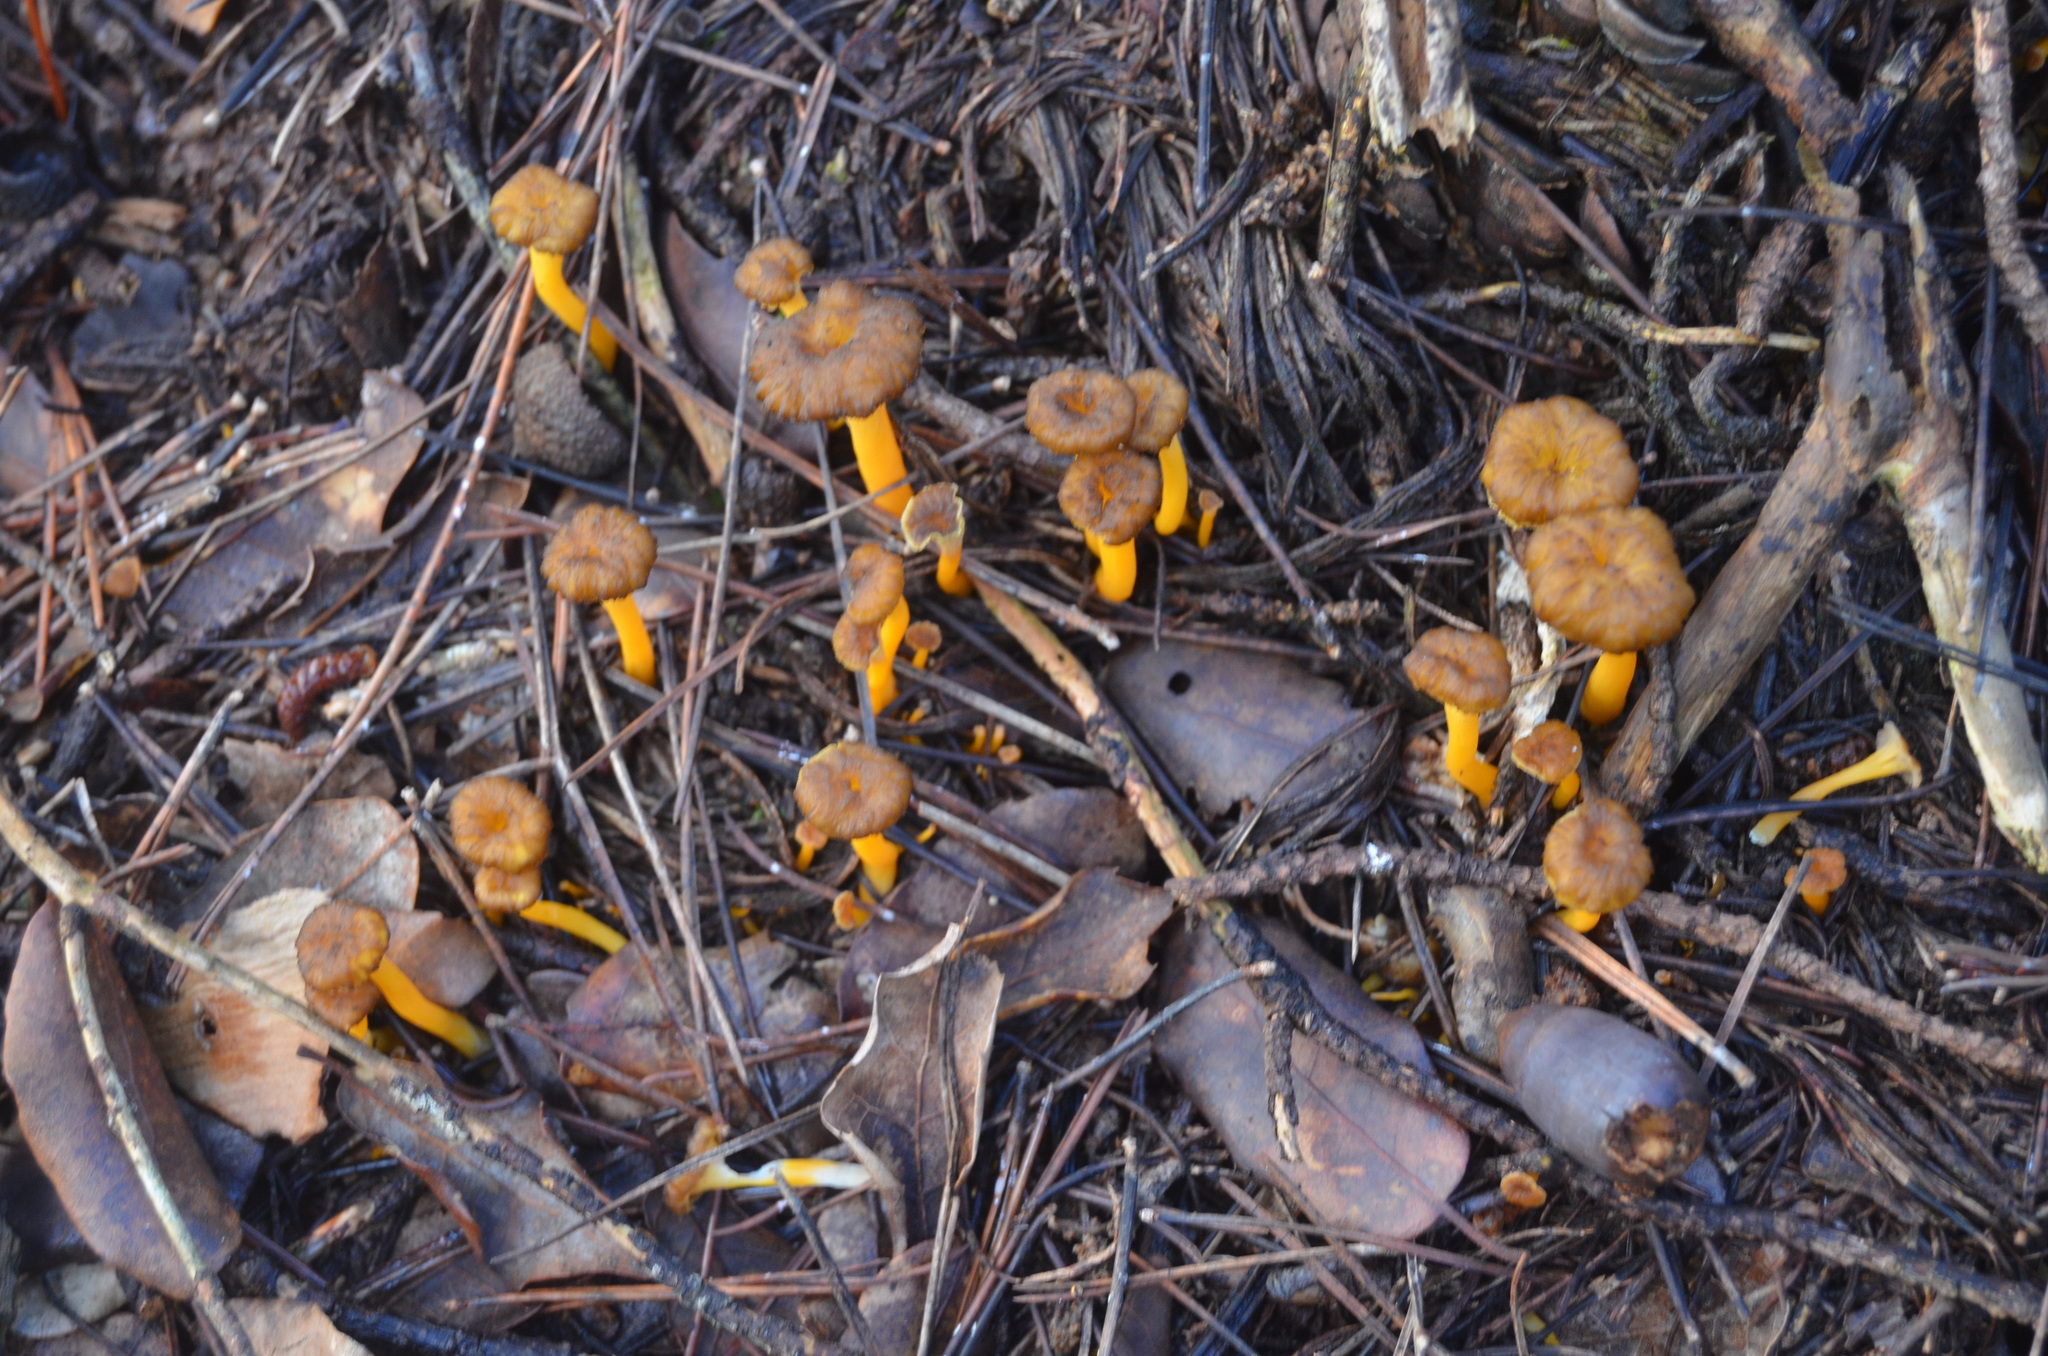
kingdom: Fungi
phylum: Basidiomycota
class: Agaricomycetes
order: Cantharellales
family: Hydnaceae
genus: Craterellus
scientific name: Craterellus lutescens
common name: Golden chanterelle
